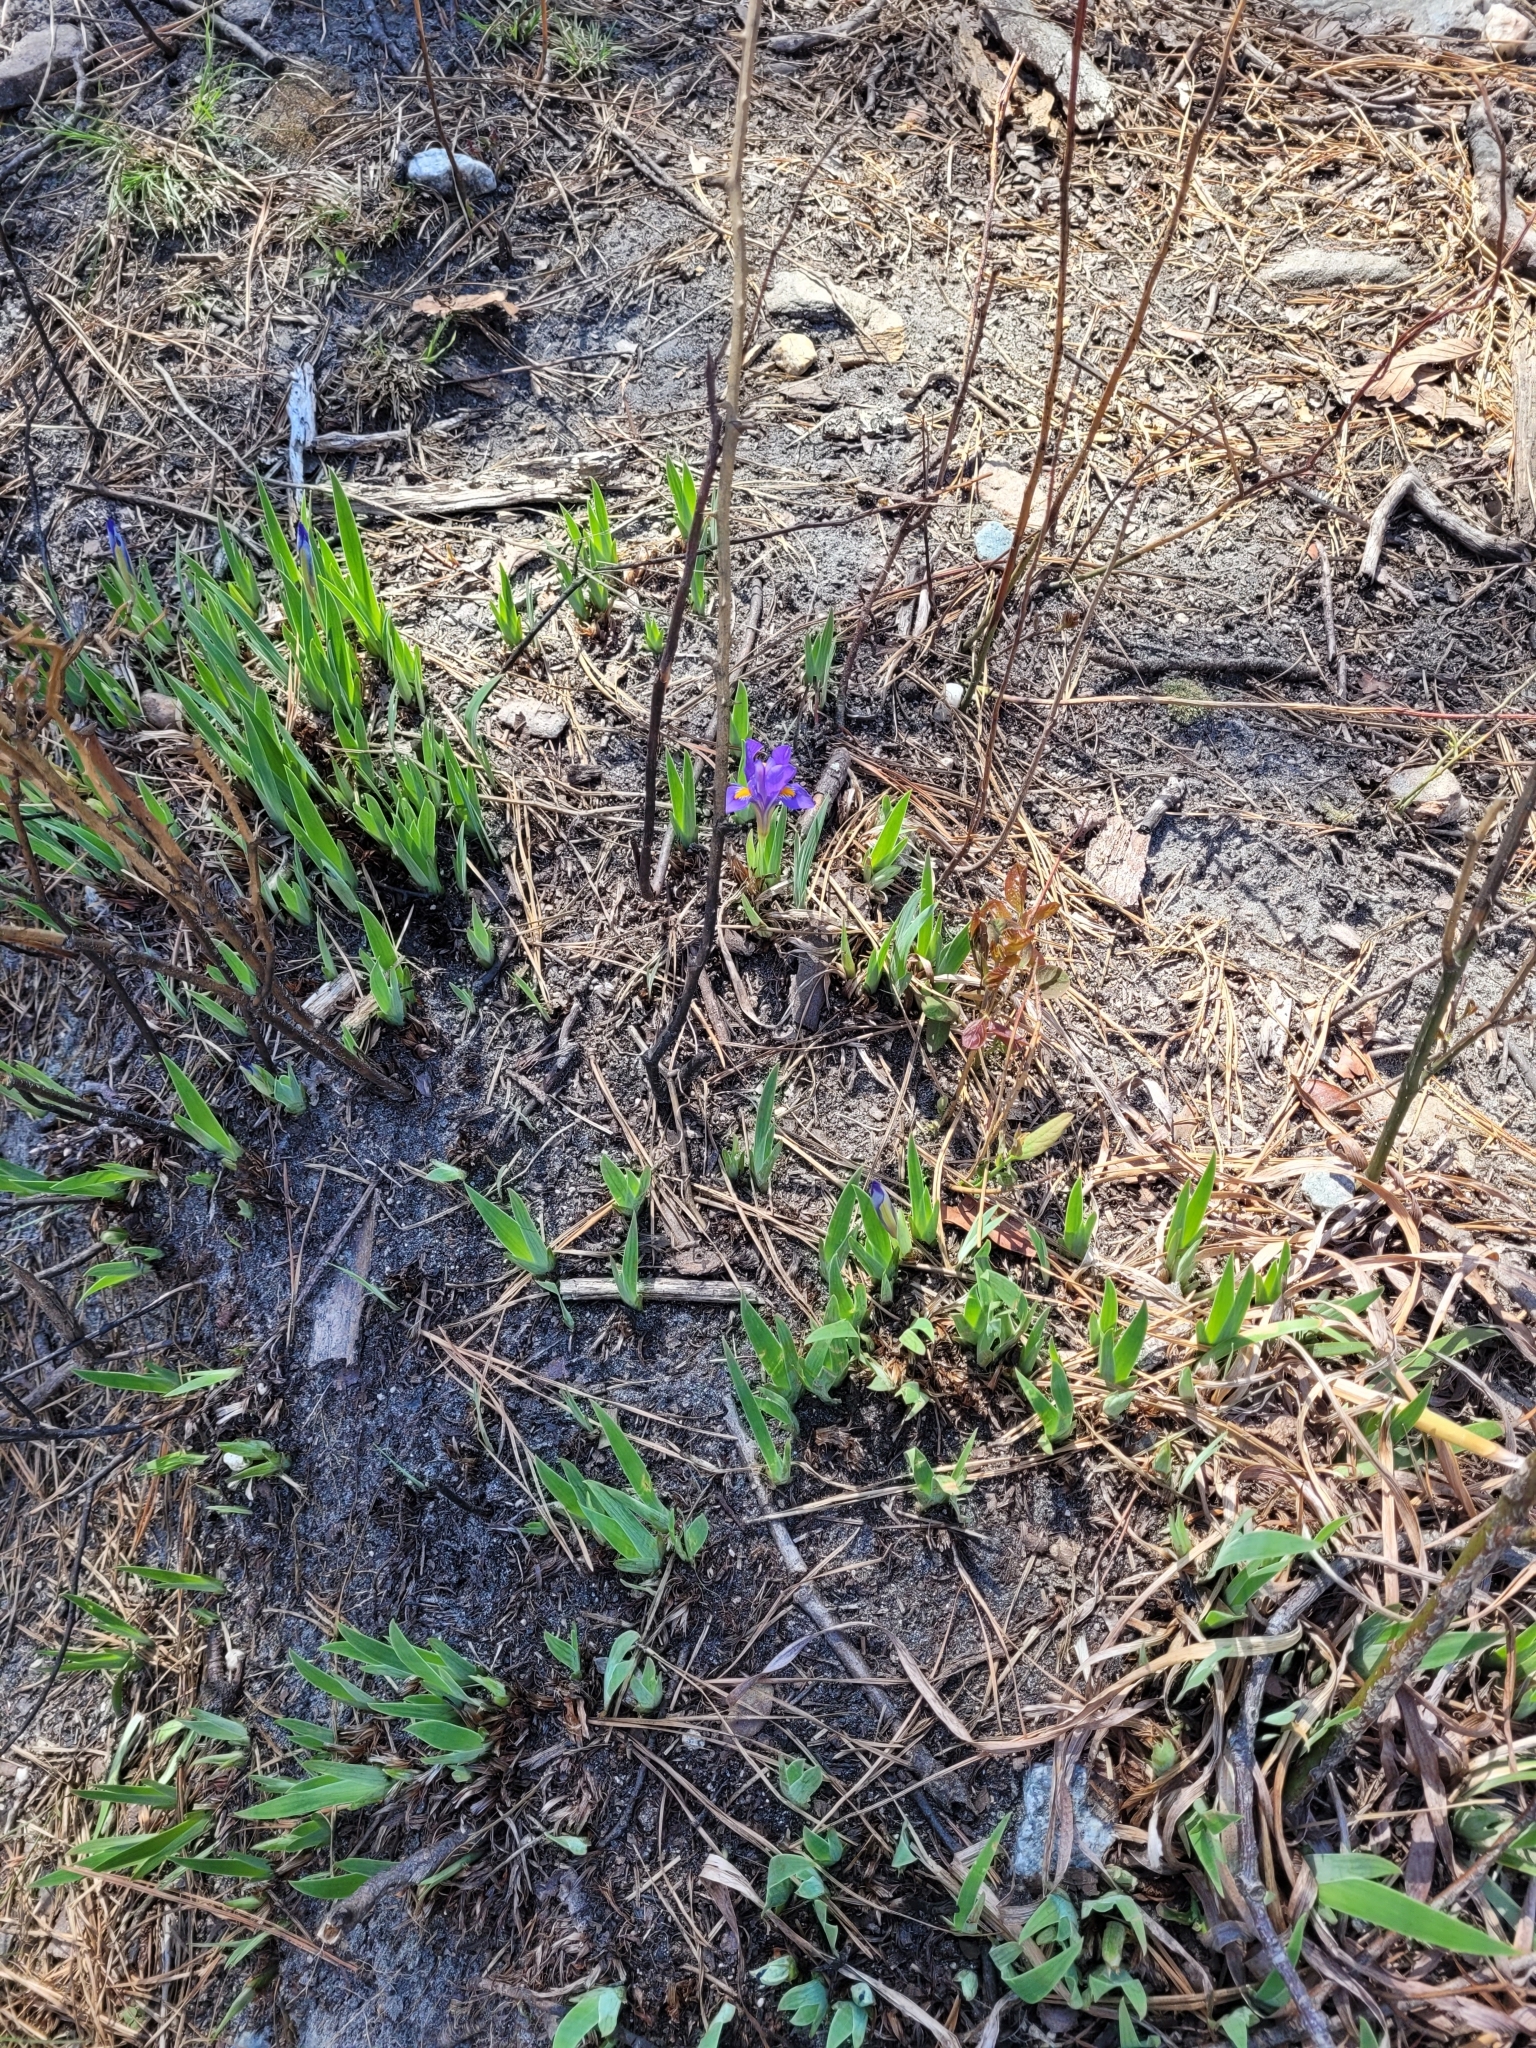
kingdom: Plantae
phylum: Tracheophyta
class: Liliopsida
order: Asparagales
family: Iridaceae
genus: Iris
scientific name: Iris verna
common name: Dwarf iris
